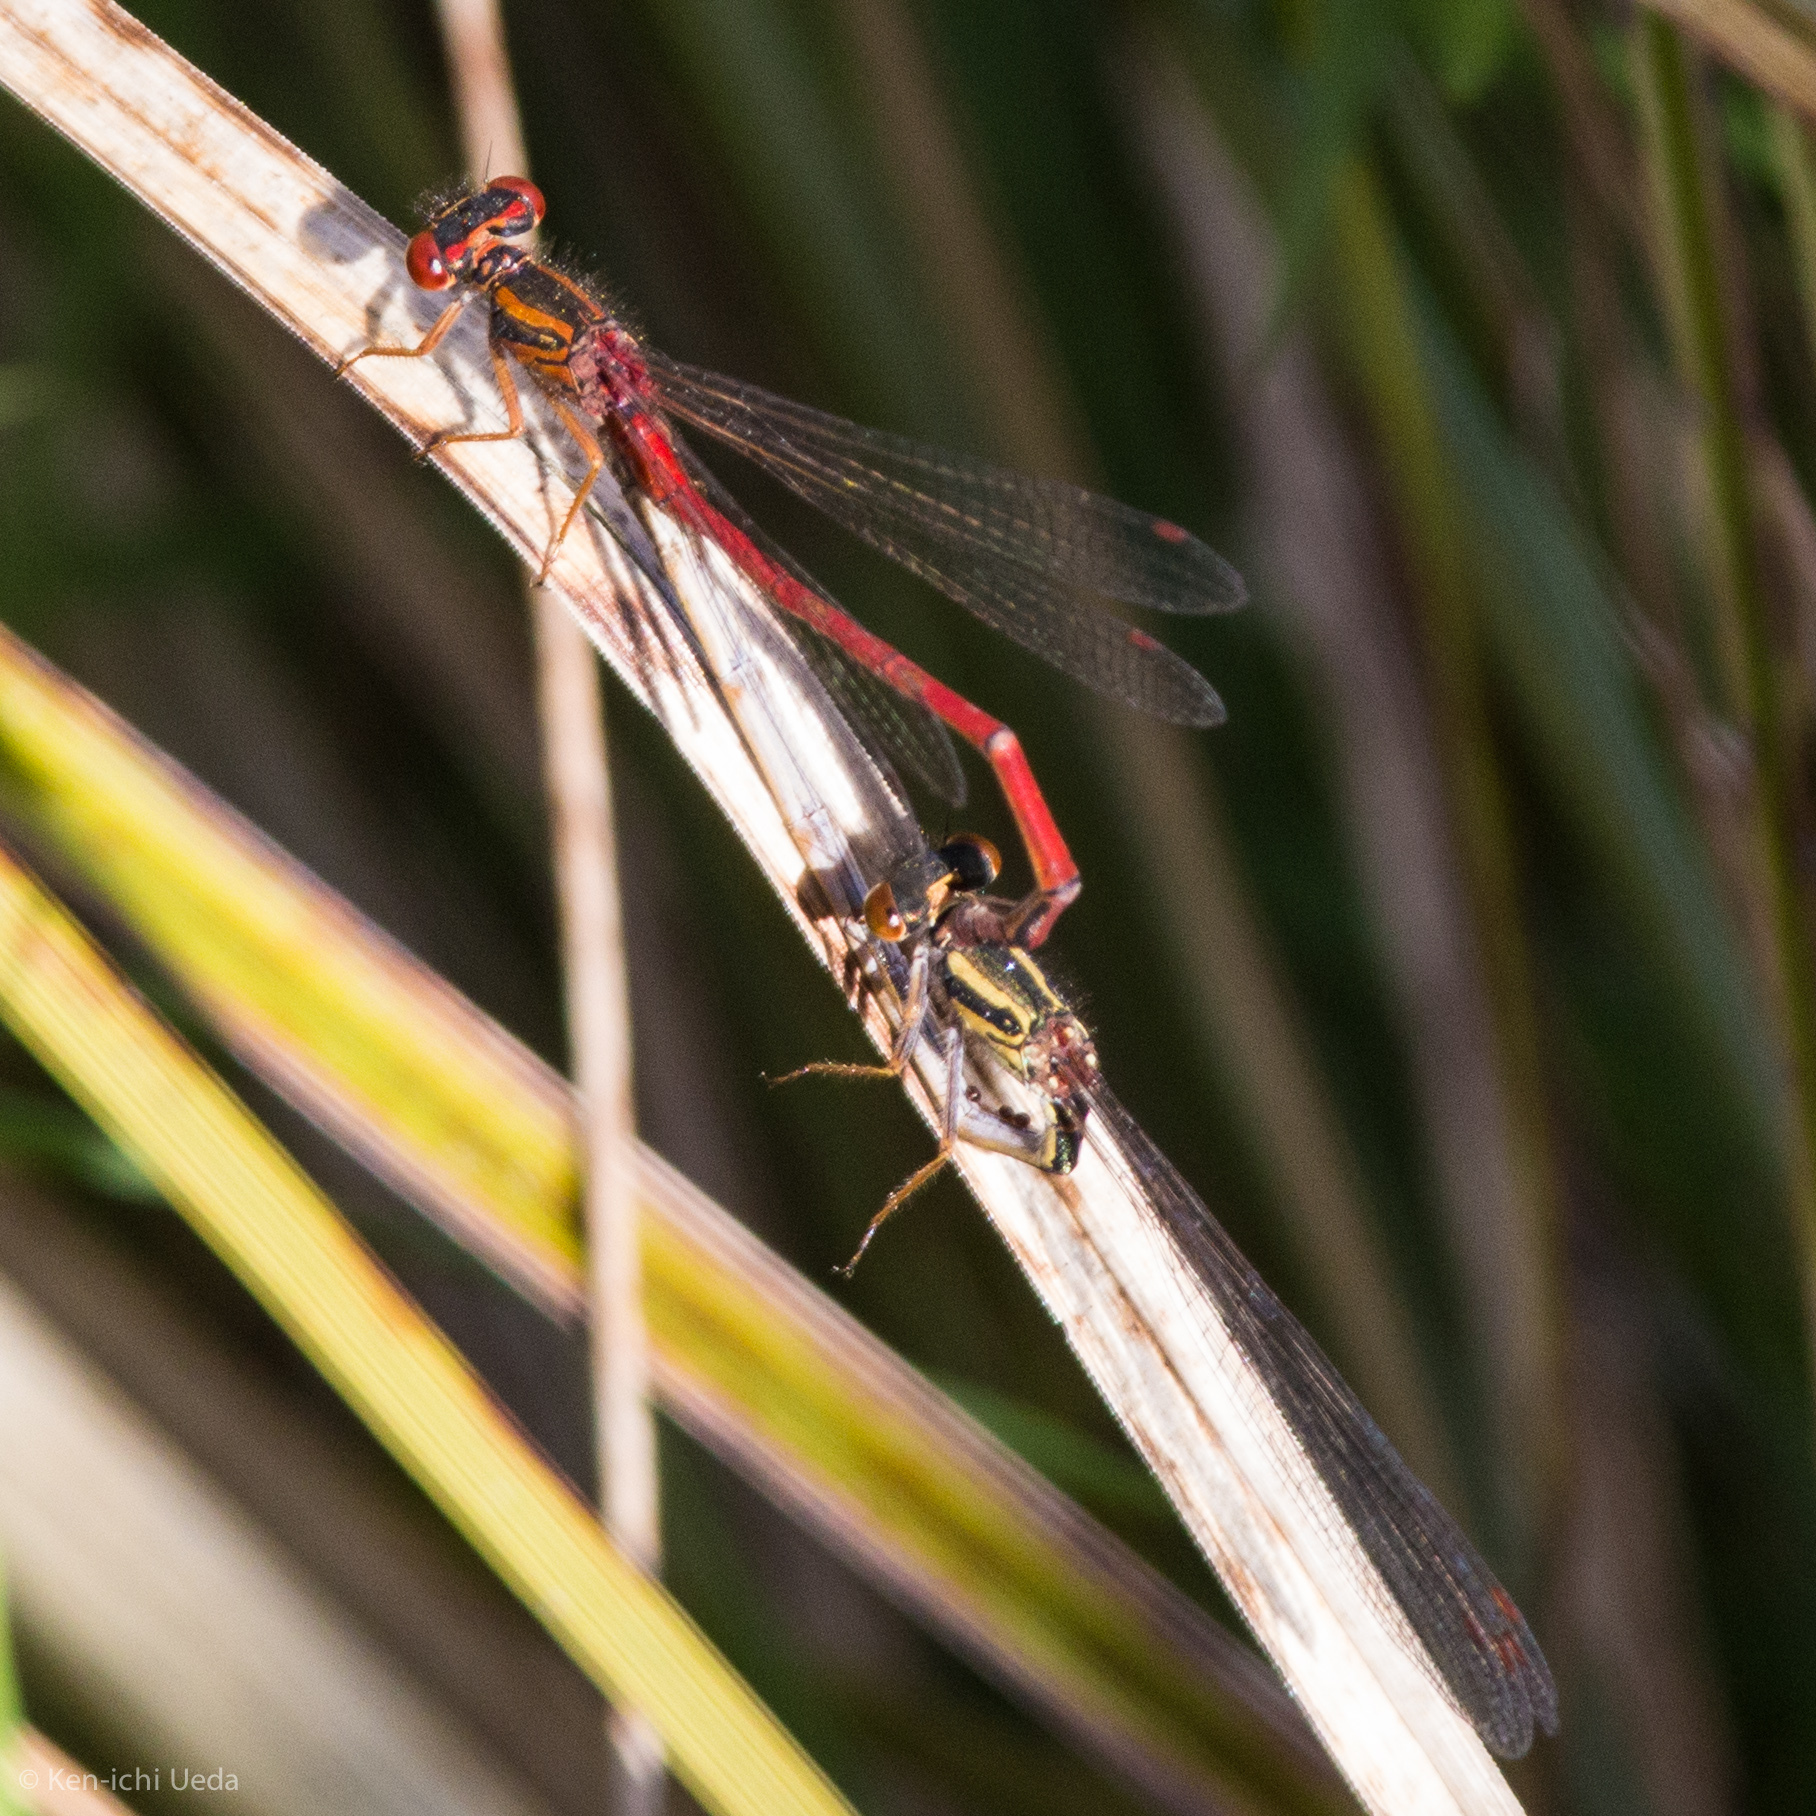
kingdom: Animalia
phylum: Arthropoda
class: Insecta
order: Odonata
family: Coenagrionidae
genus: Xanthocnemis
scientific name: Xanthocnemis zealandica
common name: Common redcoat damselfly
